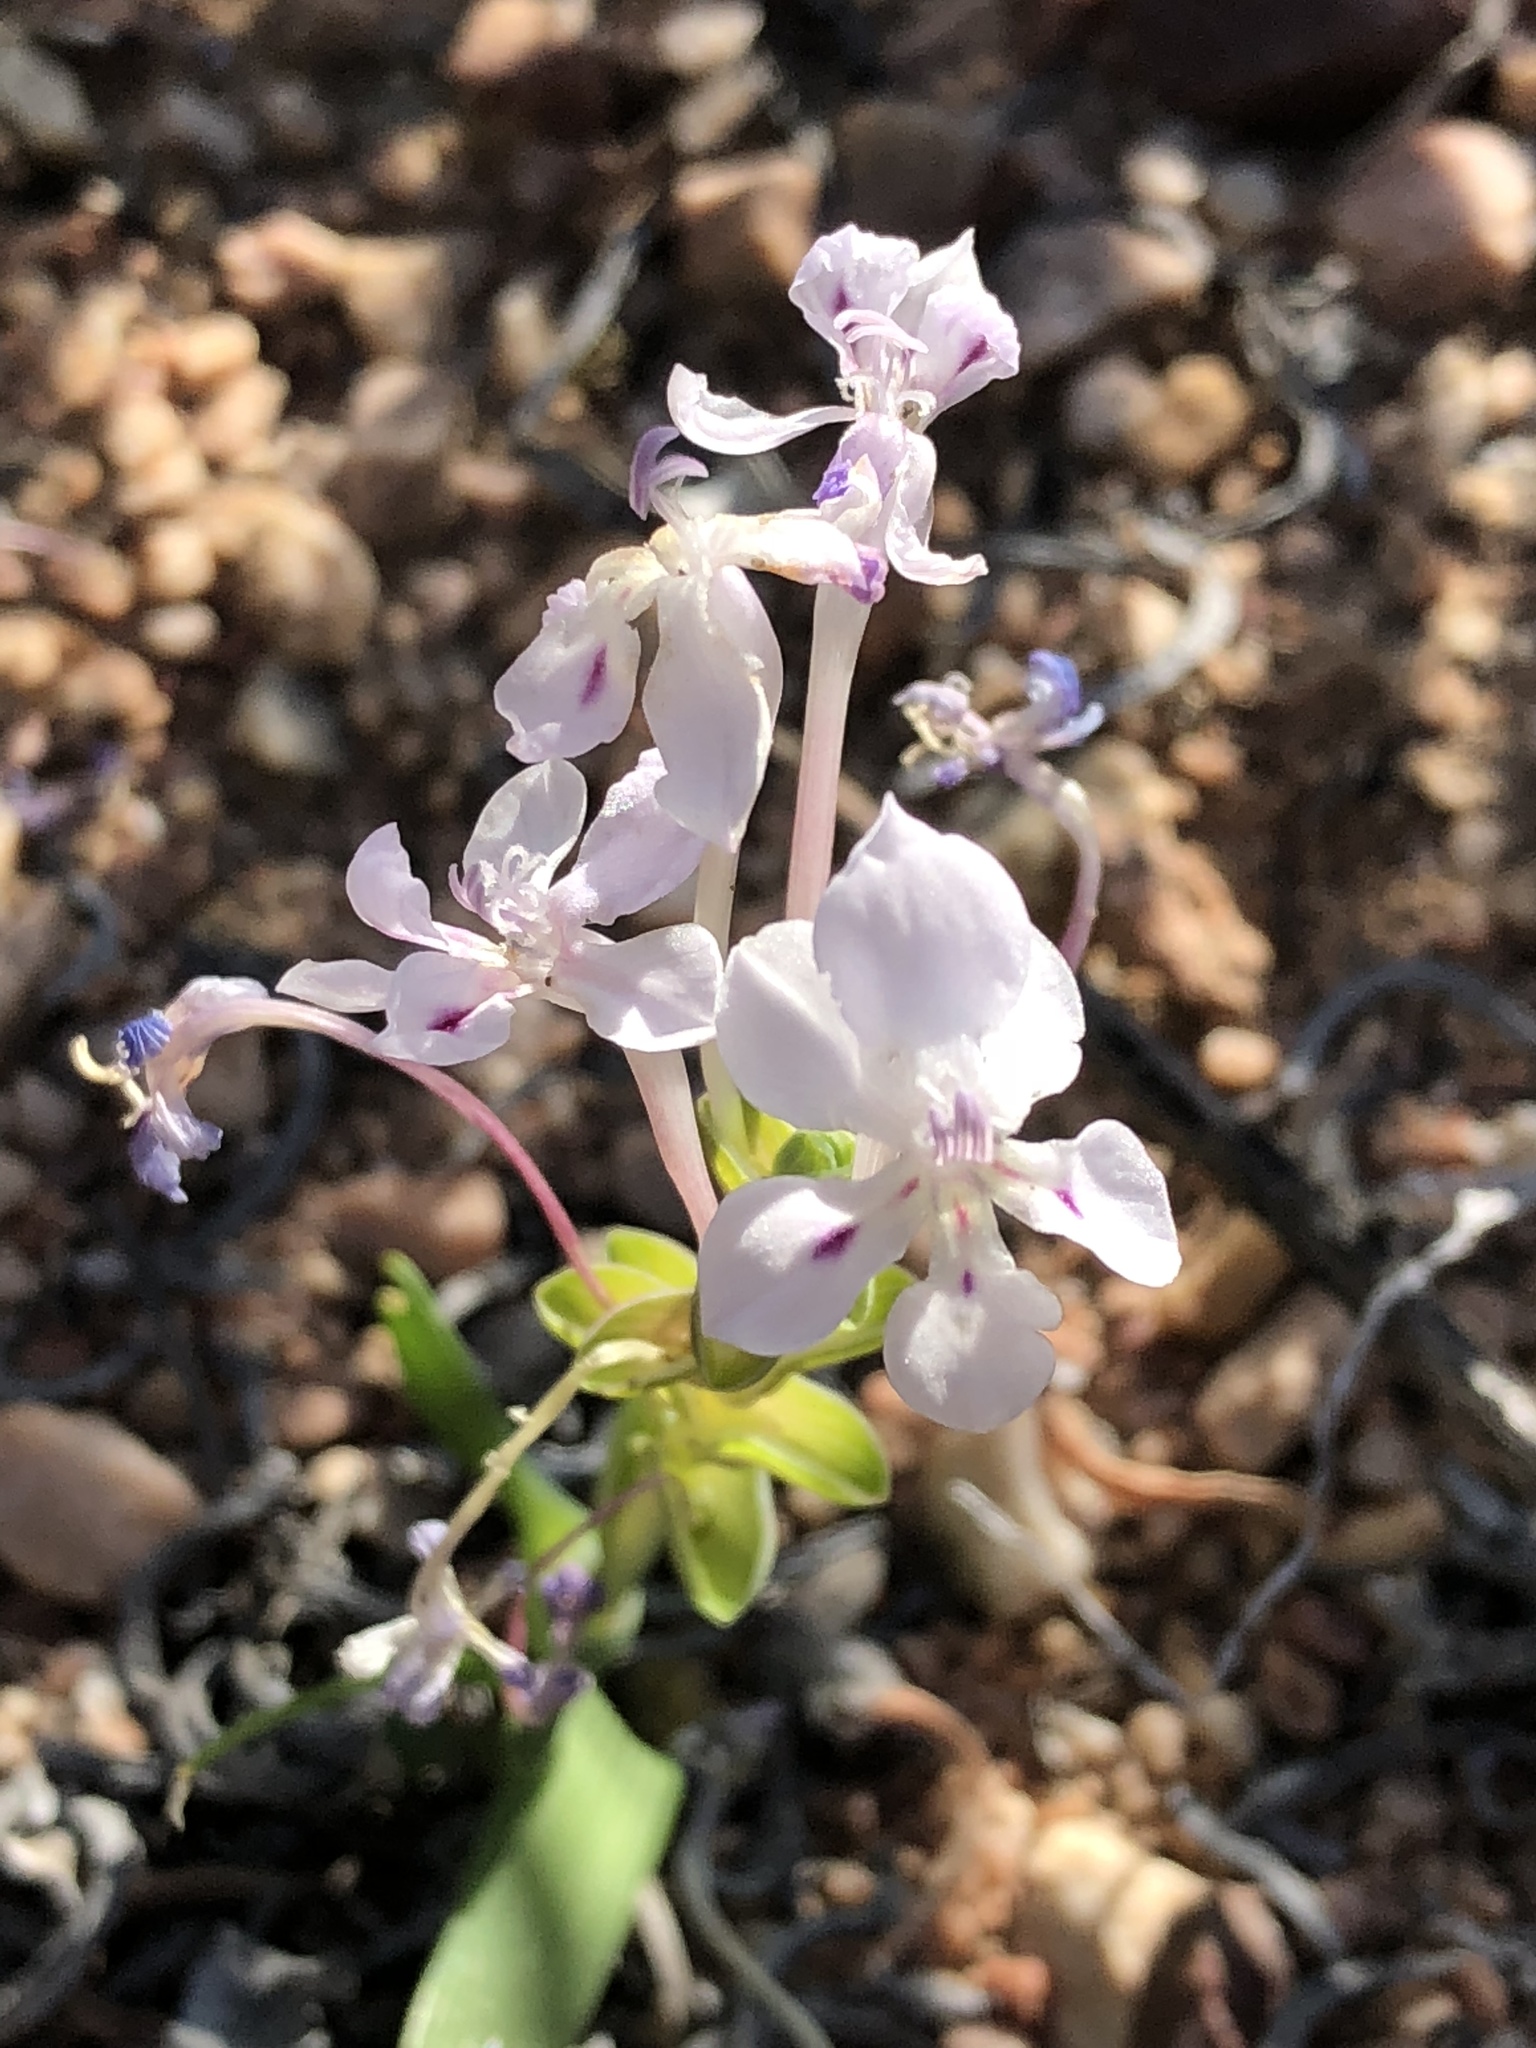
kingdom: Plantae
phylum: Tracheophyta
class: Liliopsida
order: Asparagales
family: Iridaceae
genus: Lapeirousia
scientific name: Lapeirousia pyramidalis
